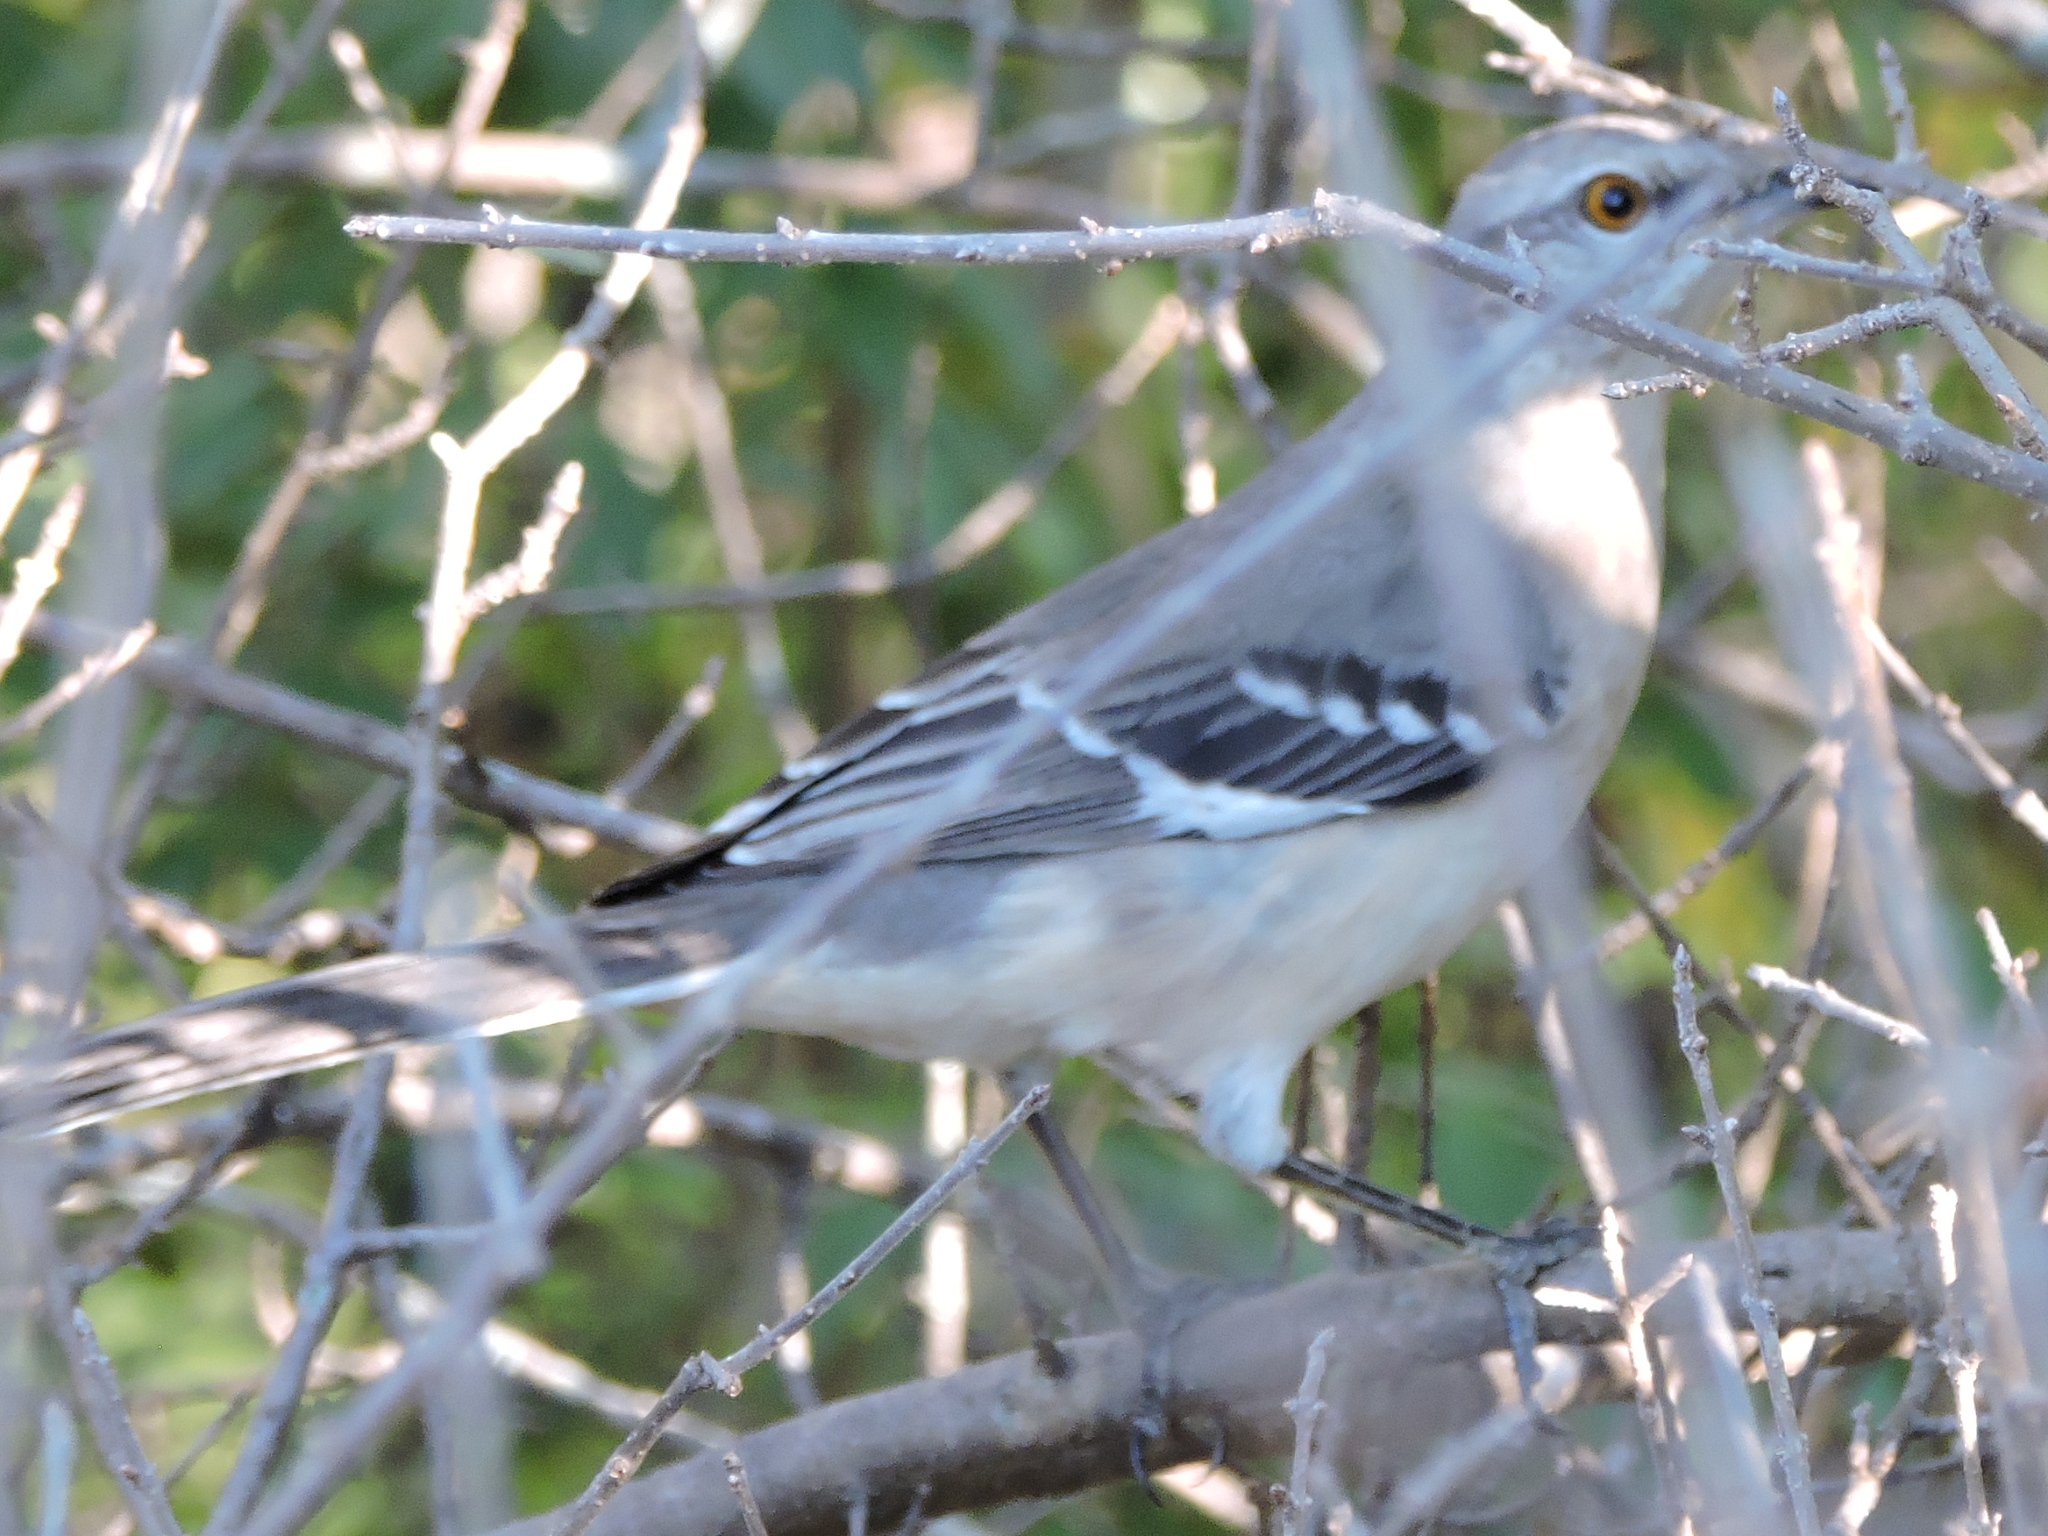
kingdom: Animalia
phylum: Chordata
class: Aves
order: Passeriformes
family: Mimidae
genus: Mimus
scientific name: Mimus polyglottos
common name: Northern mockingbird
